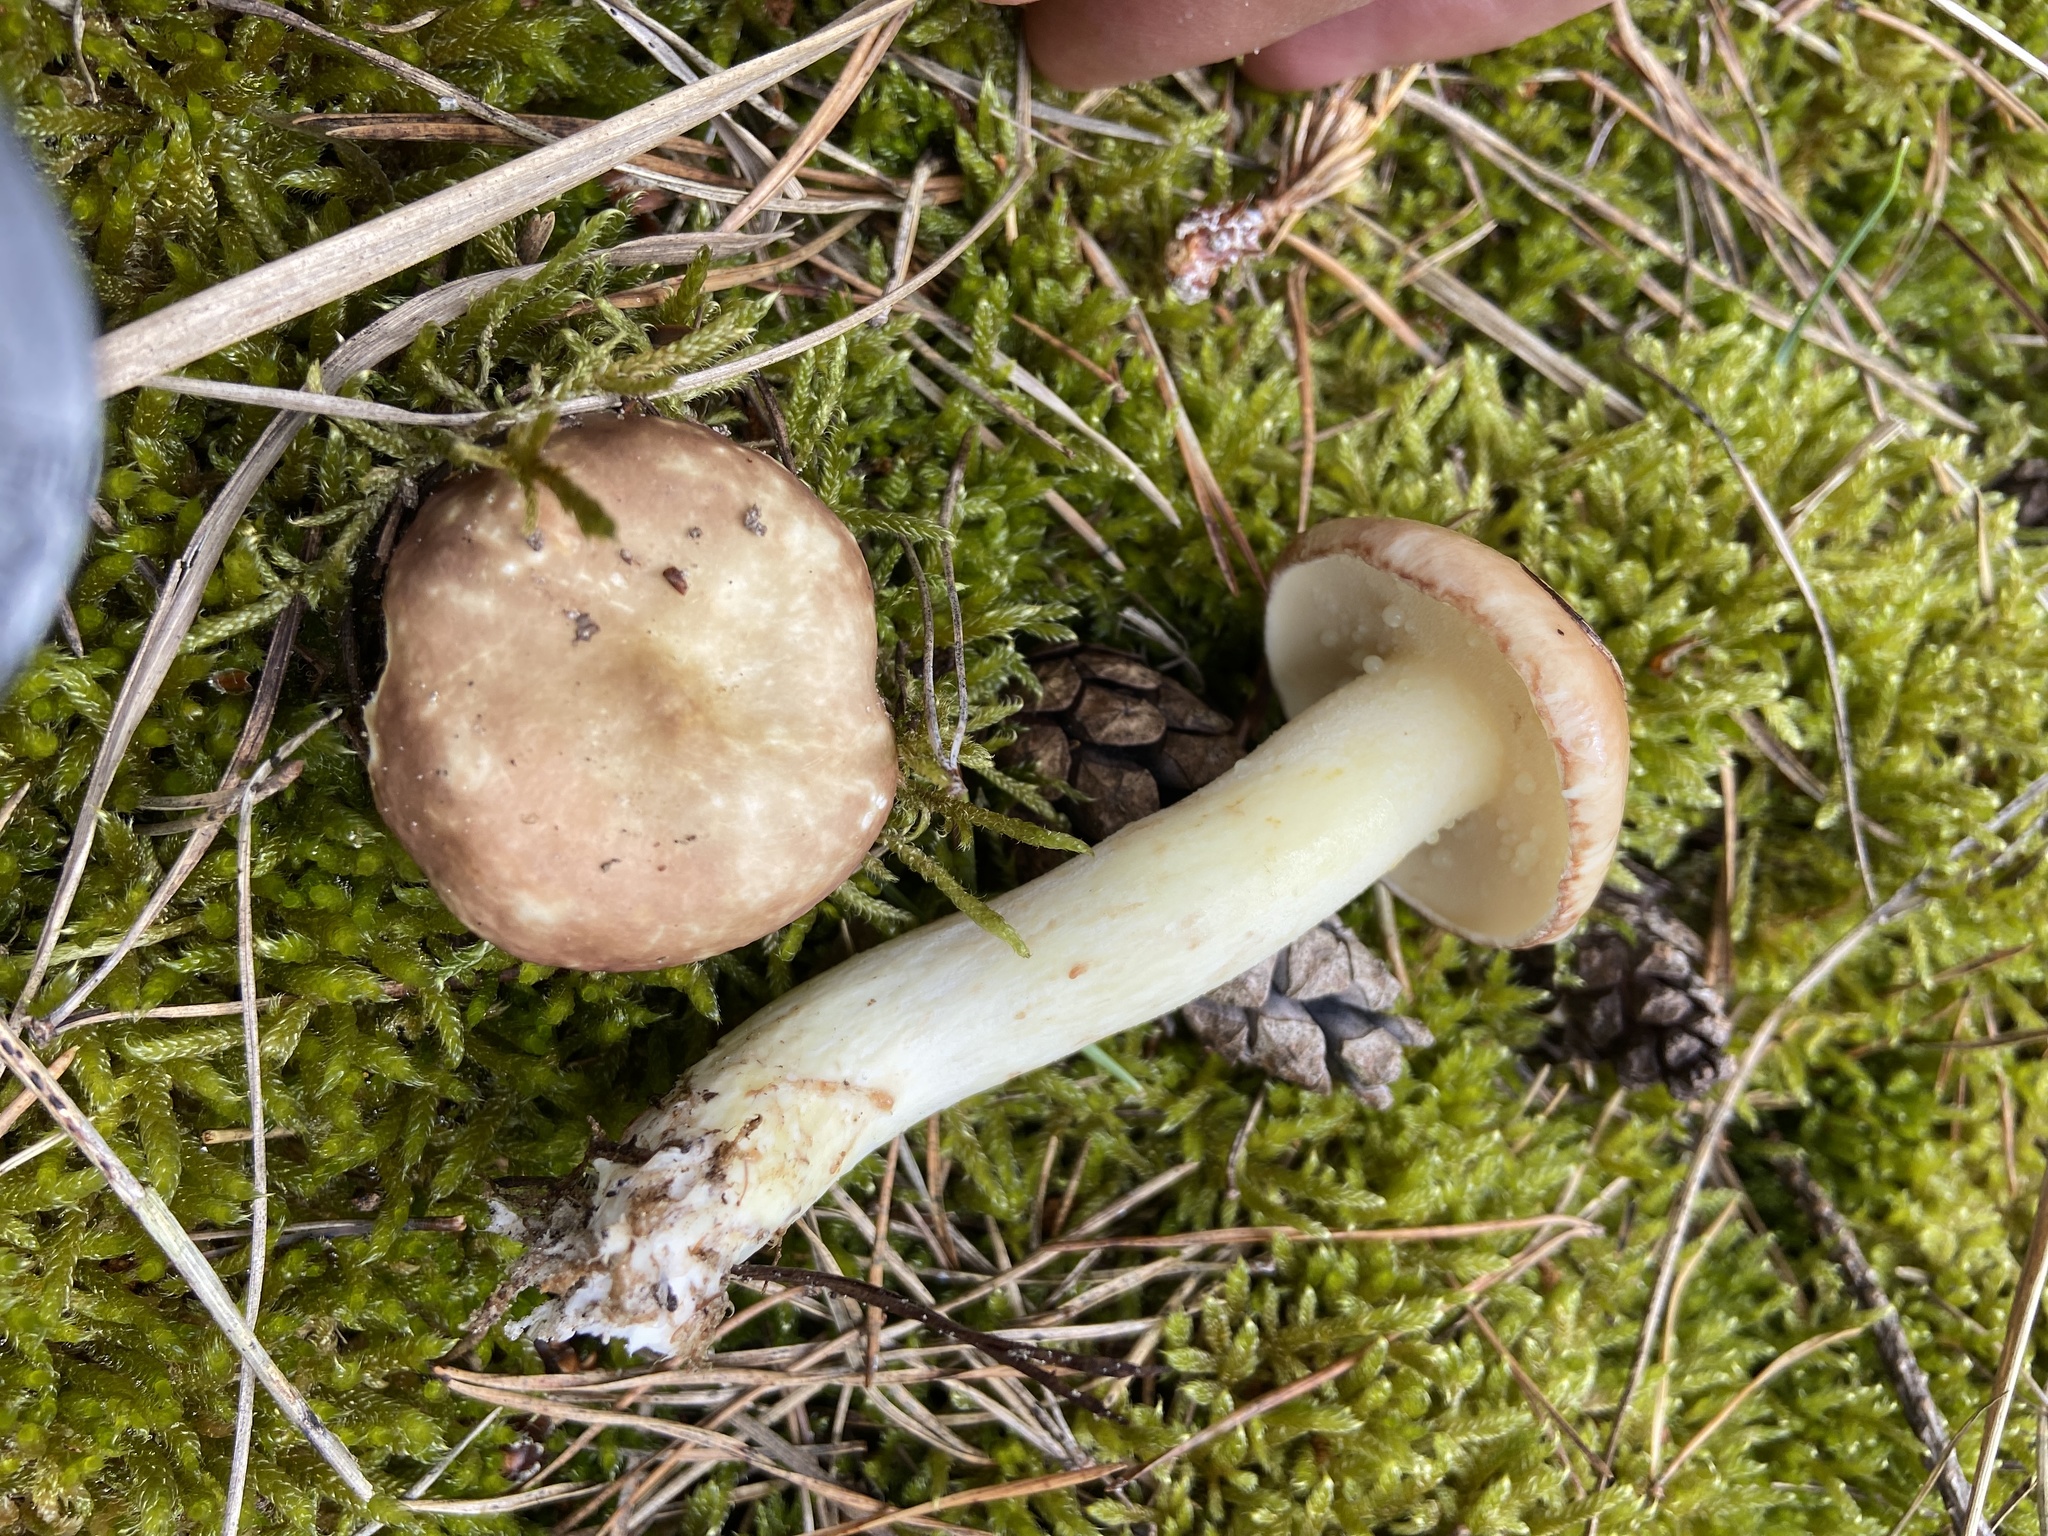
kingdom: Fungi
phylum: Basidiomycota
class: Agaricomycetes
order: Boletales
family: Suillaceae
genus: Suillus
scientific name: Suillus granulatus
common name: Weeping bolete
